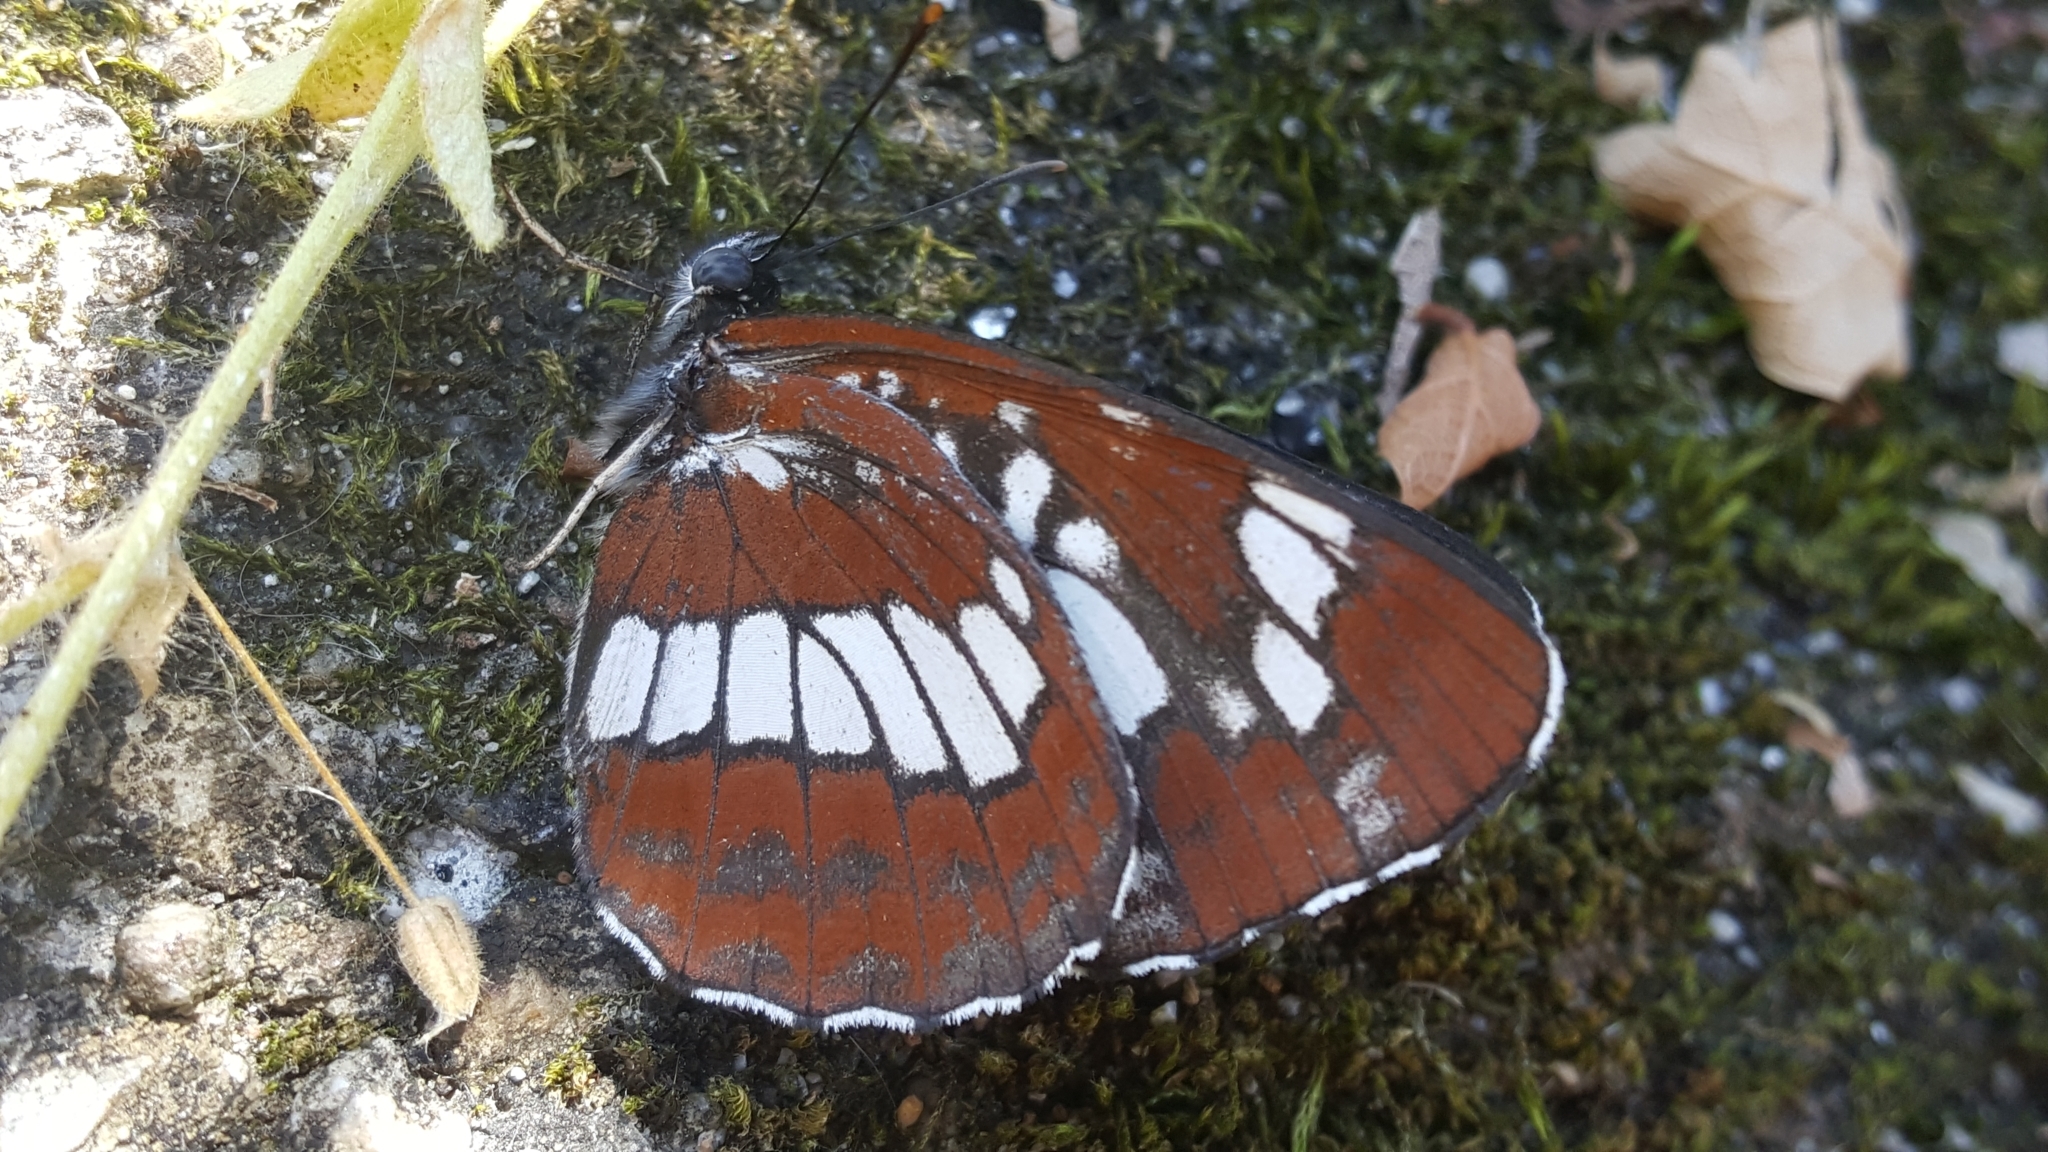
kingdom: Animalia
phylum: Arthropoda
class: Insecta
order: Lepidoptera
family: Nymphalidae
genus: Neptis
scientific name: Neptis rivularis
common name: Hungarian glider
